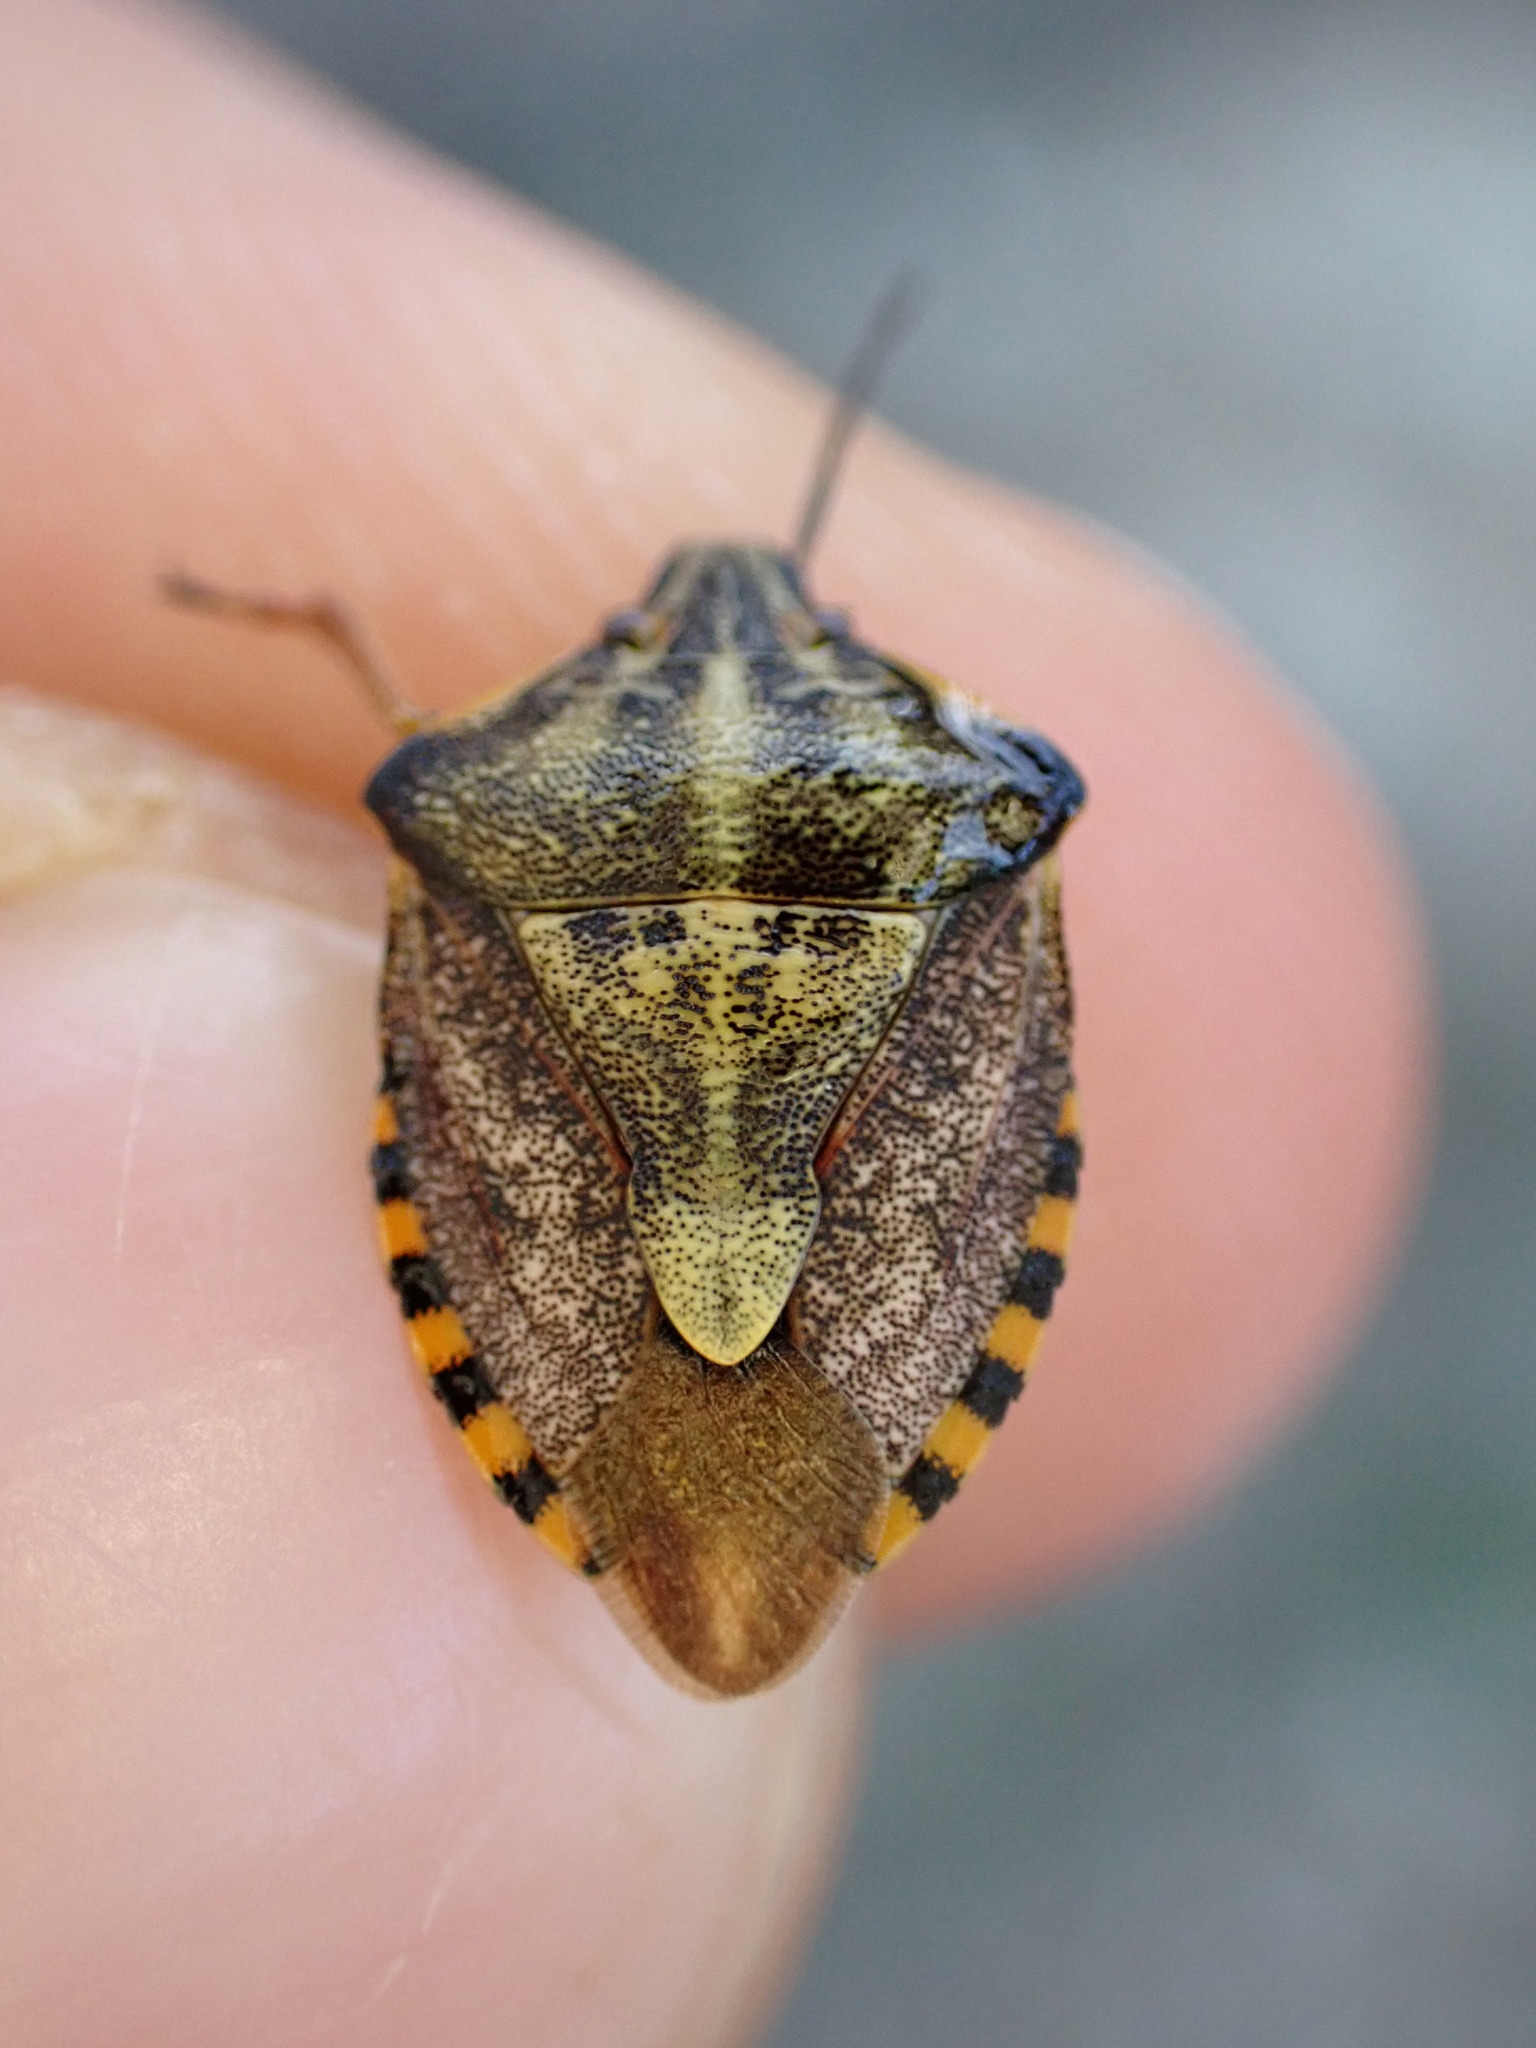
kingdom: Animalia
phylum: Arthropoda
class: Insecta
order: Hemiptera
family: Pentatomidae
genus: Carpocoris
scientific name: Carpocoris purpureipennis
